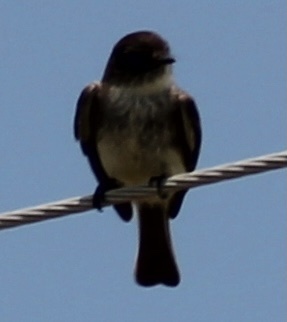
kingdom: Animalia
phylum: Chordata
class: Aves
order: Passeriformes
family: Tyrannidae
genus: Sayornis
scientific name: Sayornis phoebe
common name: Eastern phoebe
